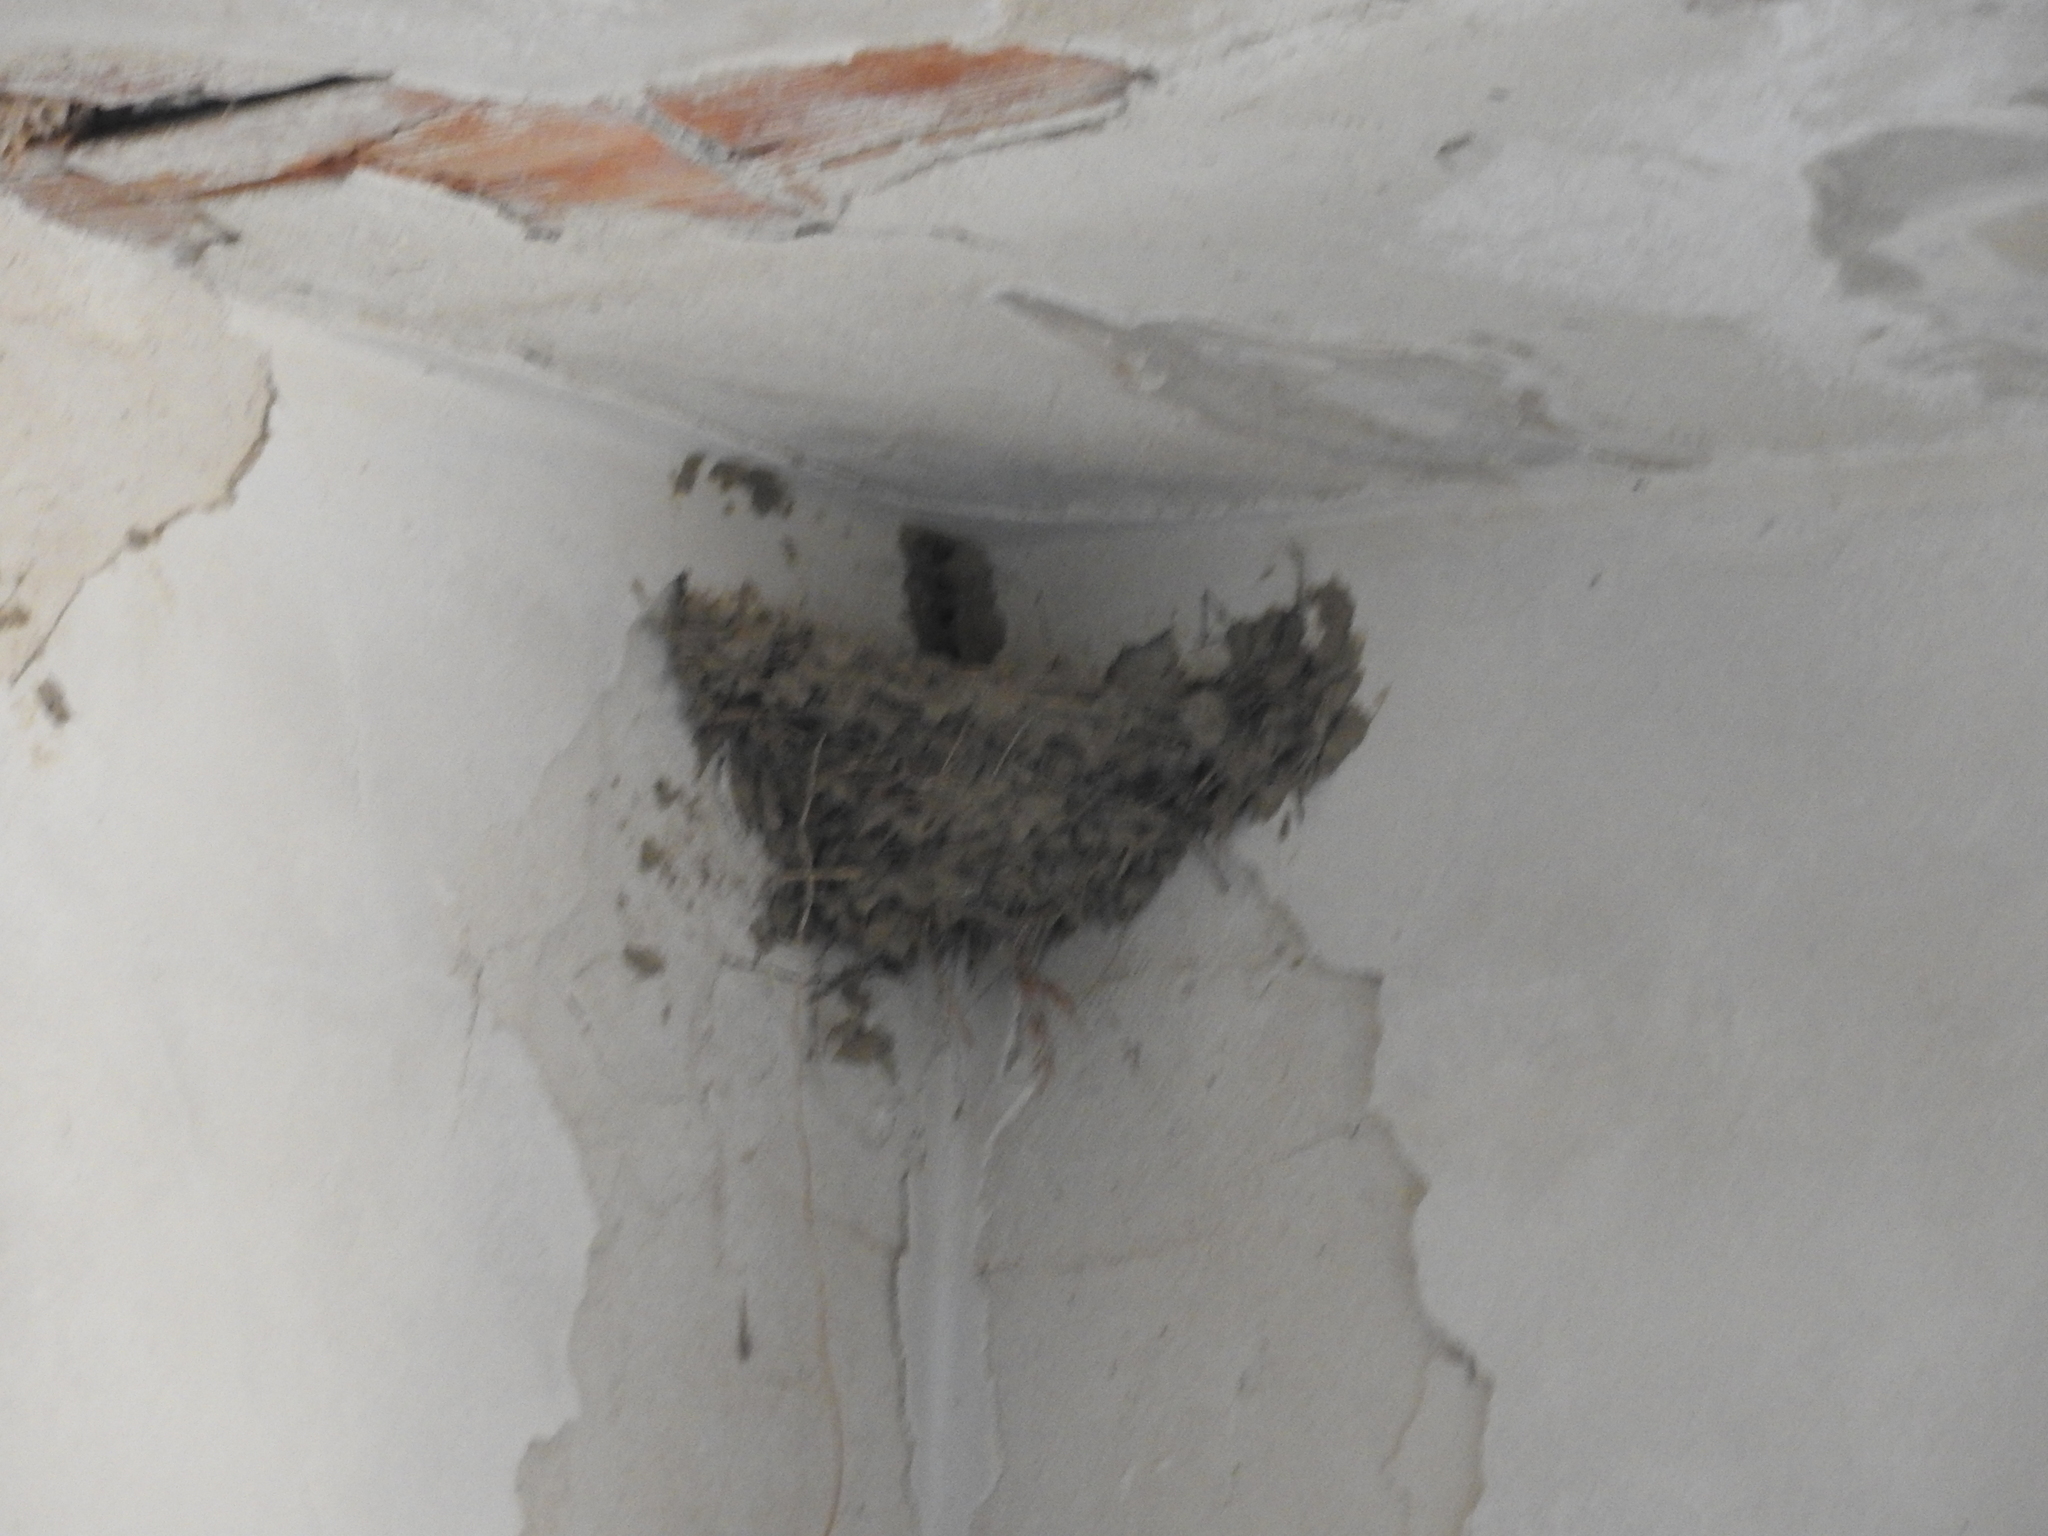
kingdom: Animalia
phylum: Chordata
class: Aves
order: Passeriformes
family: Hirundinidae
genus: Hirundo
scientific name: Hirundo rustica
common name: Barn swallow
